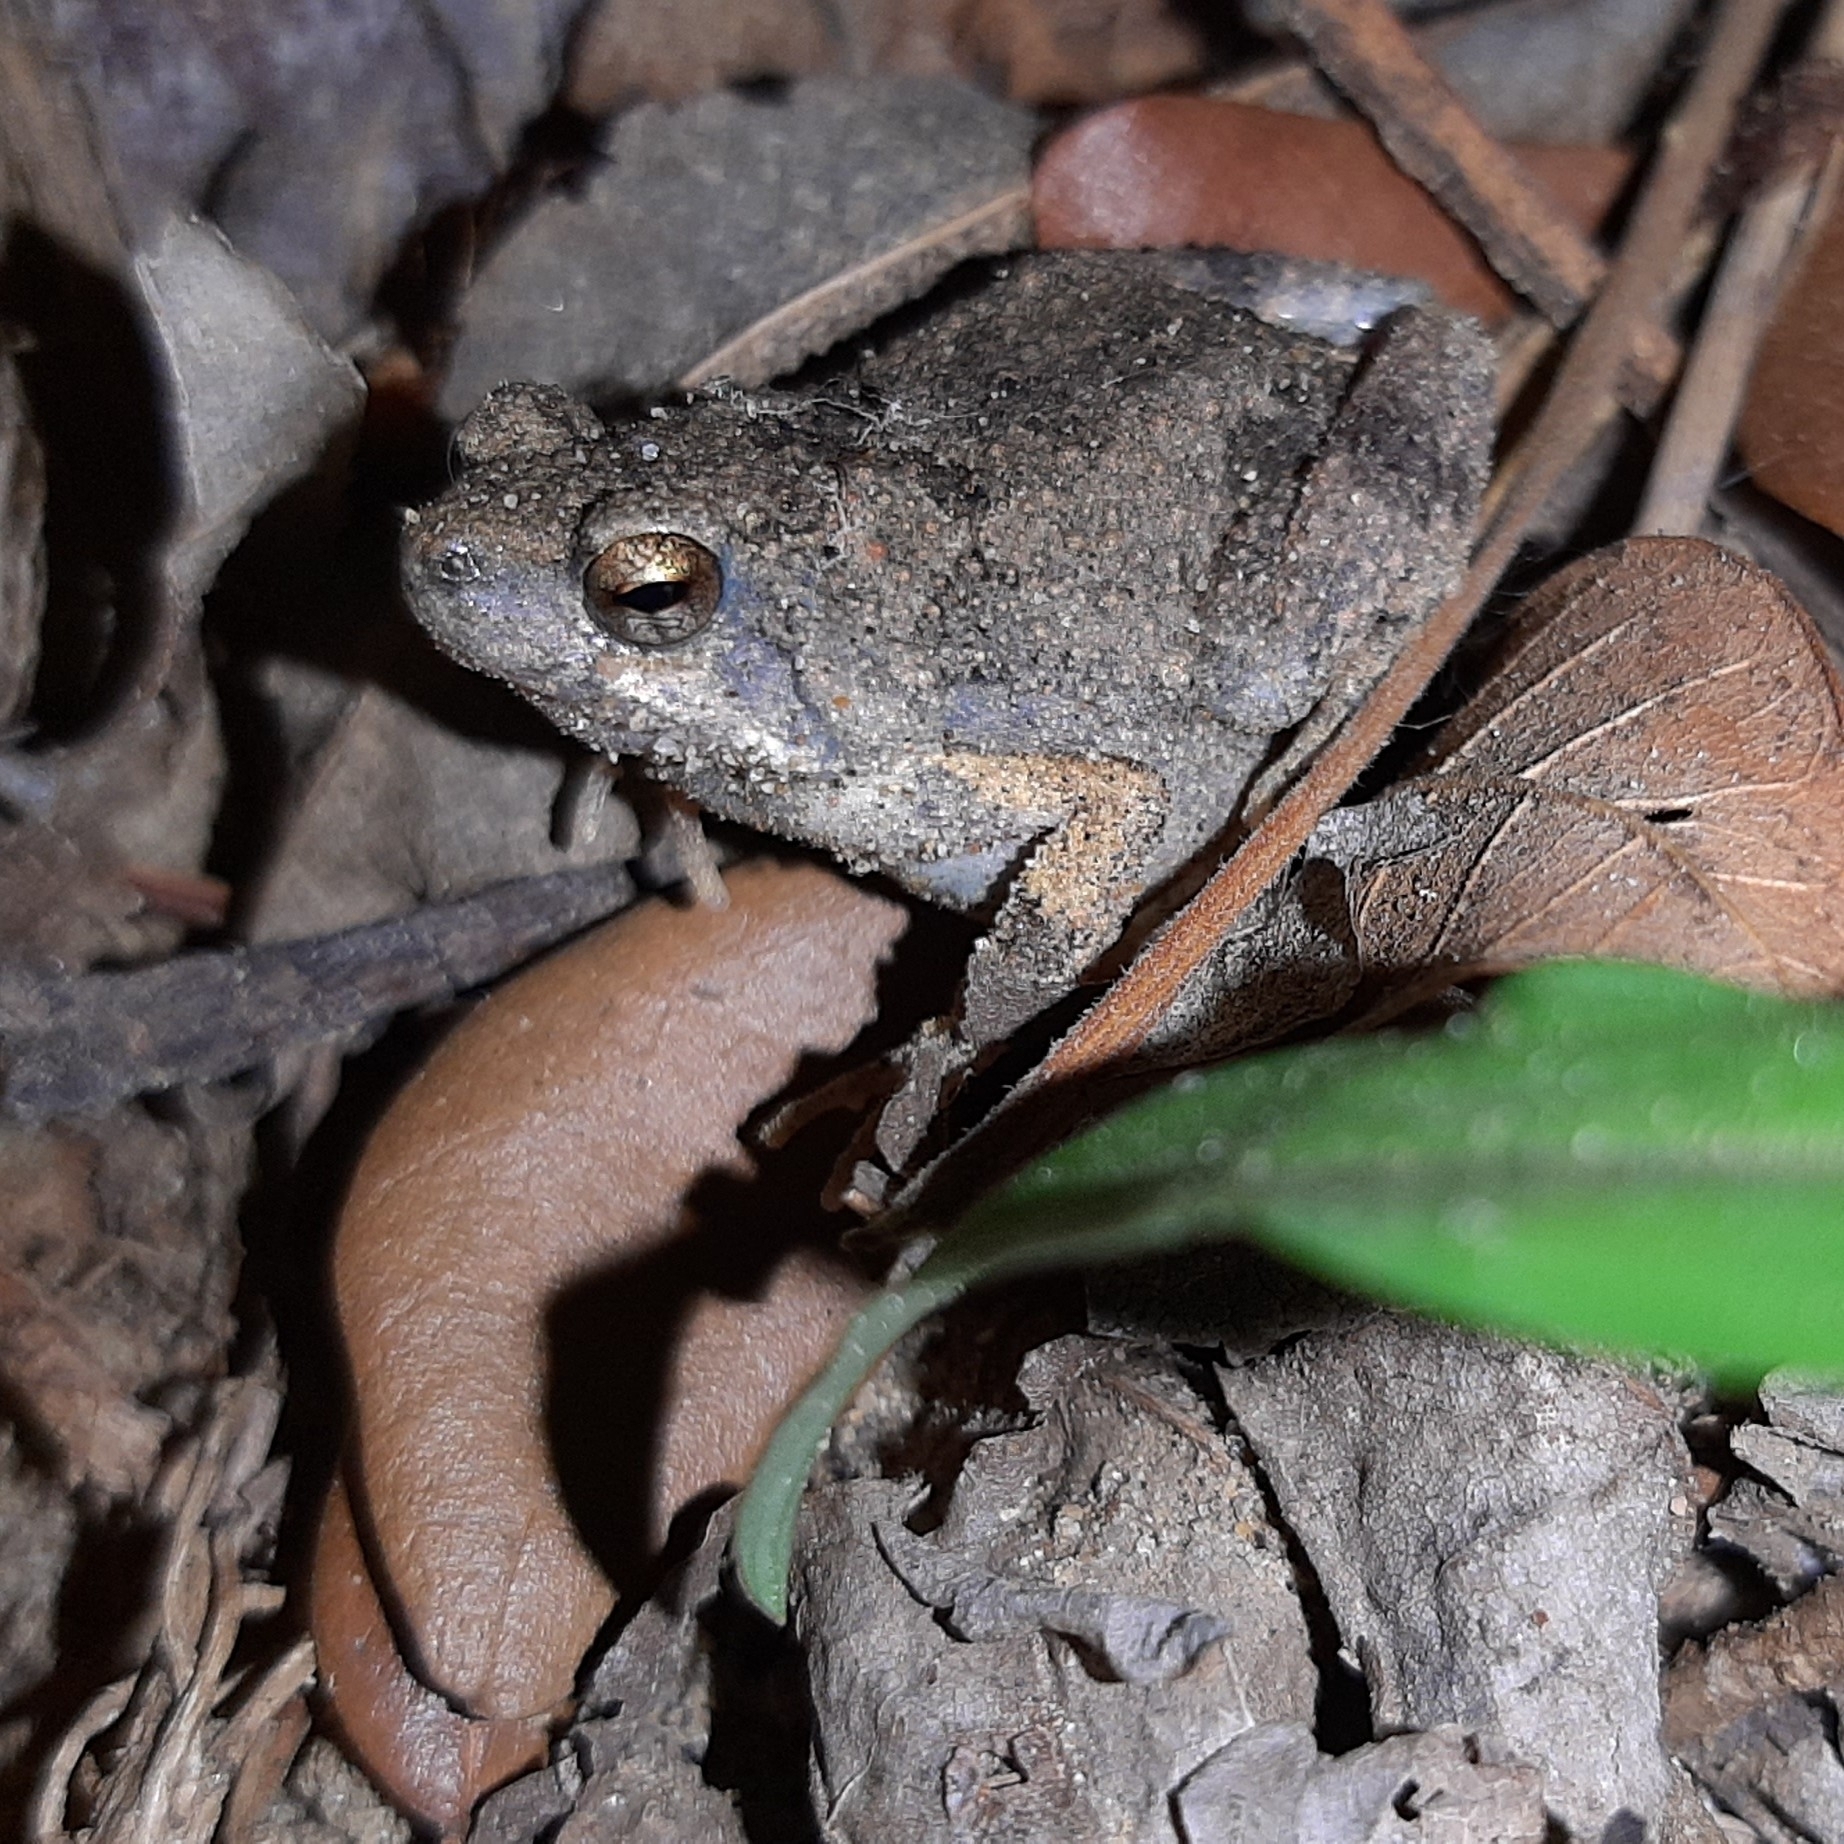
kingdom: Animalia
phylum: Chordata
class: Amphibia
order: Anura
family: Leptodactylidae
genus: Engystomops
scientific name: Engystomops pustulosus
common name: Tungara frog
